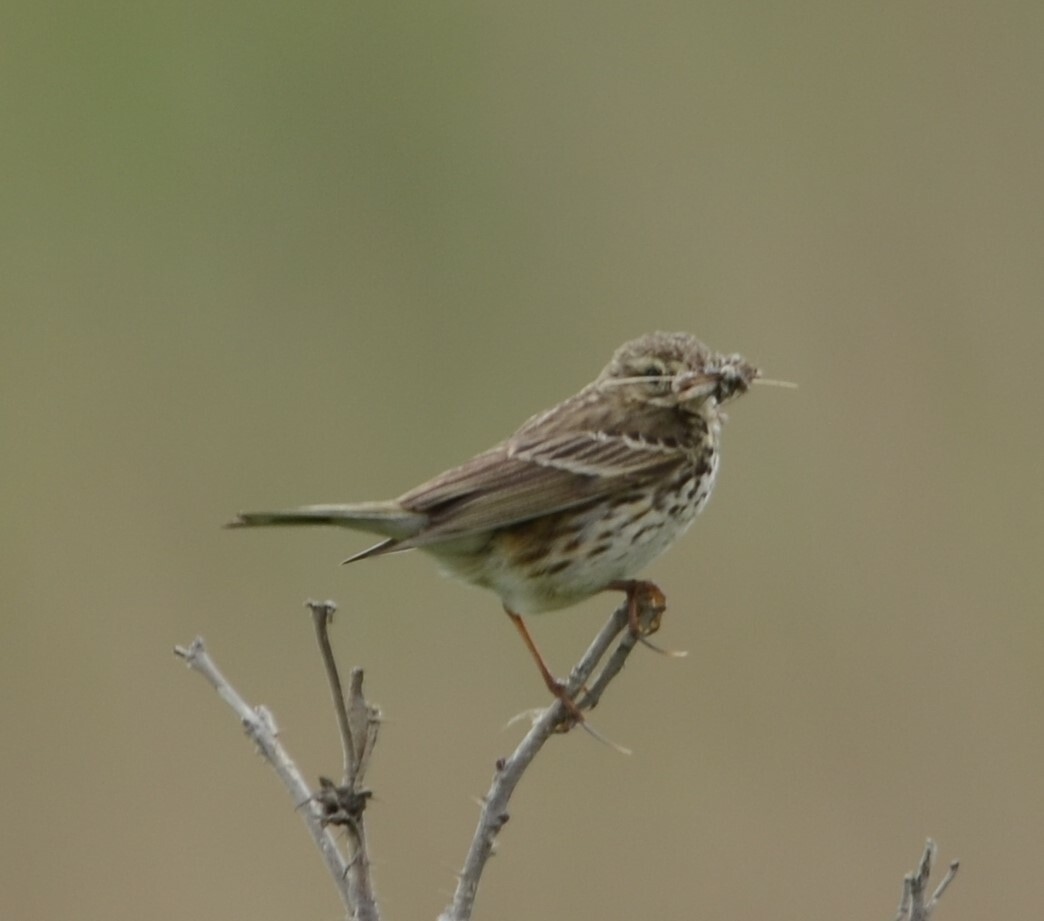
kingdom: Animalia
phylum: Chordata
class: Aves
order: Passeriformes
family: Motacillidae
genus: Anthus
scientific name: Anthus pratensis
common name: Meadow pipit
